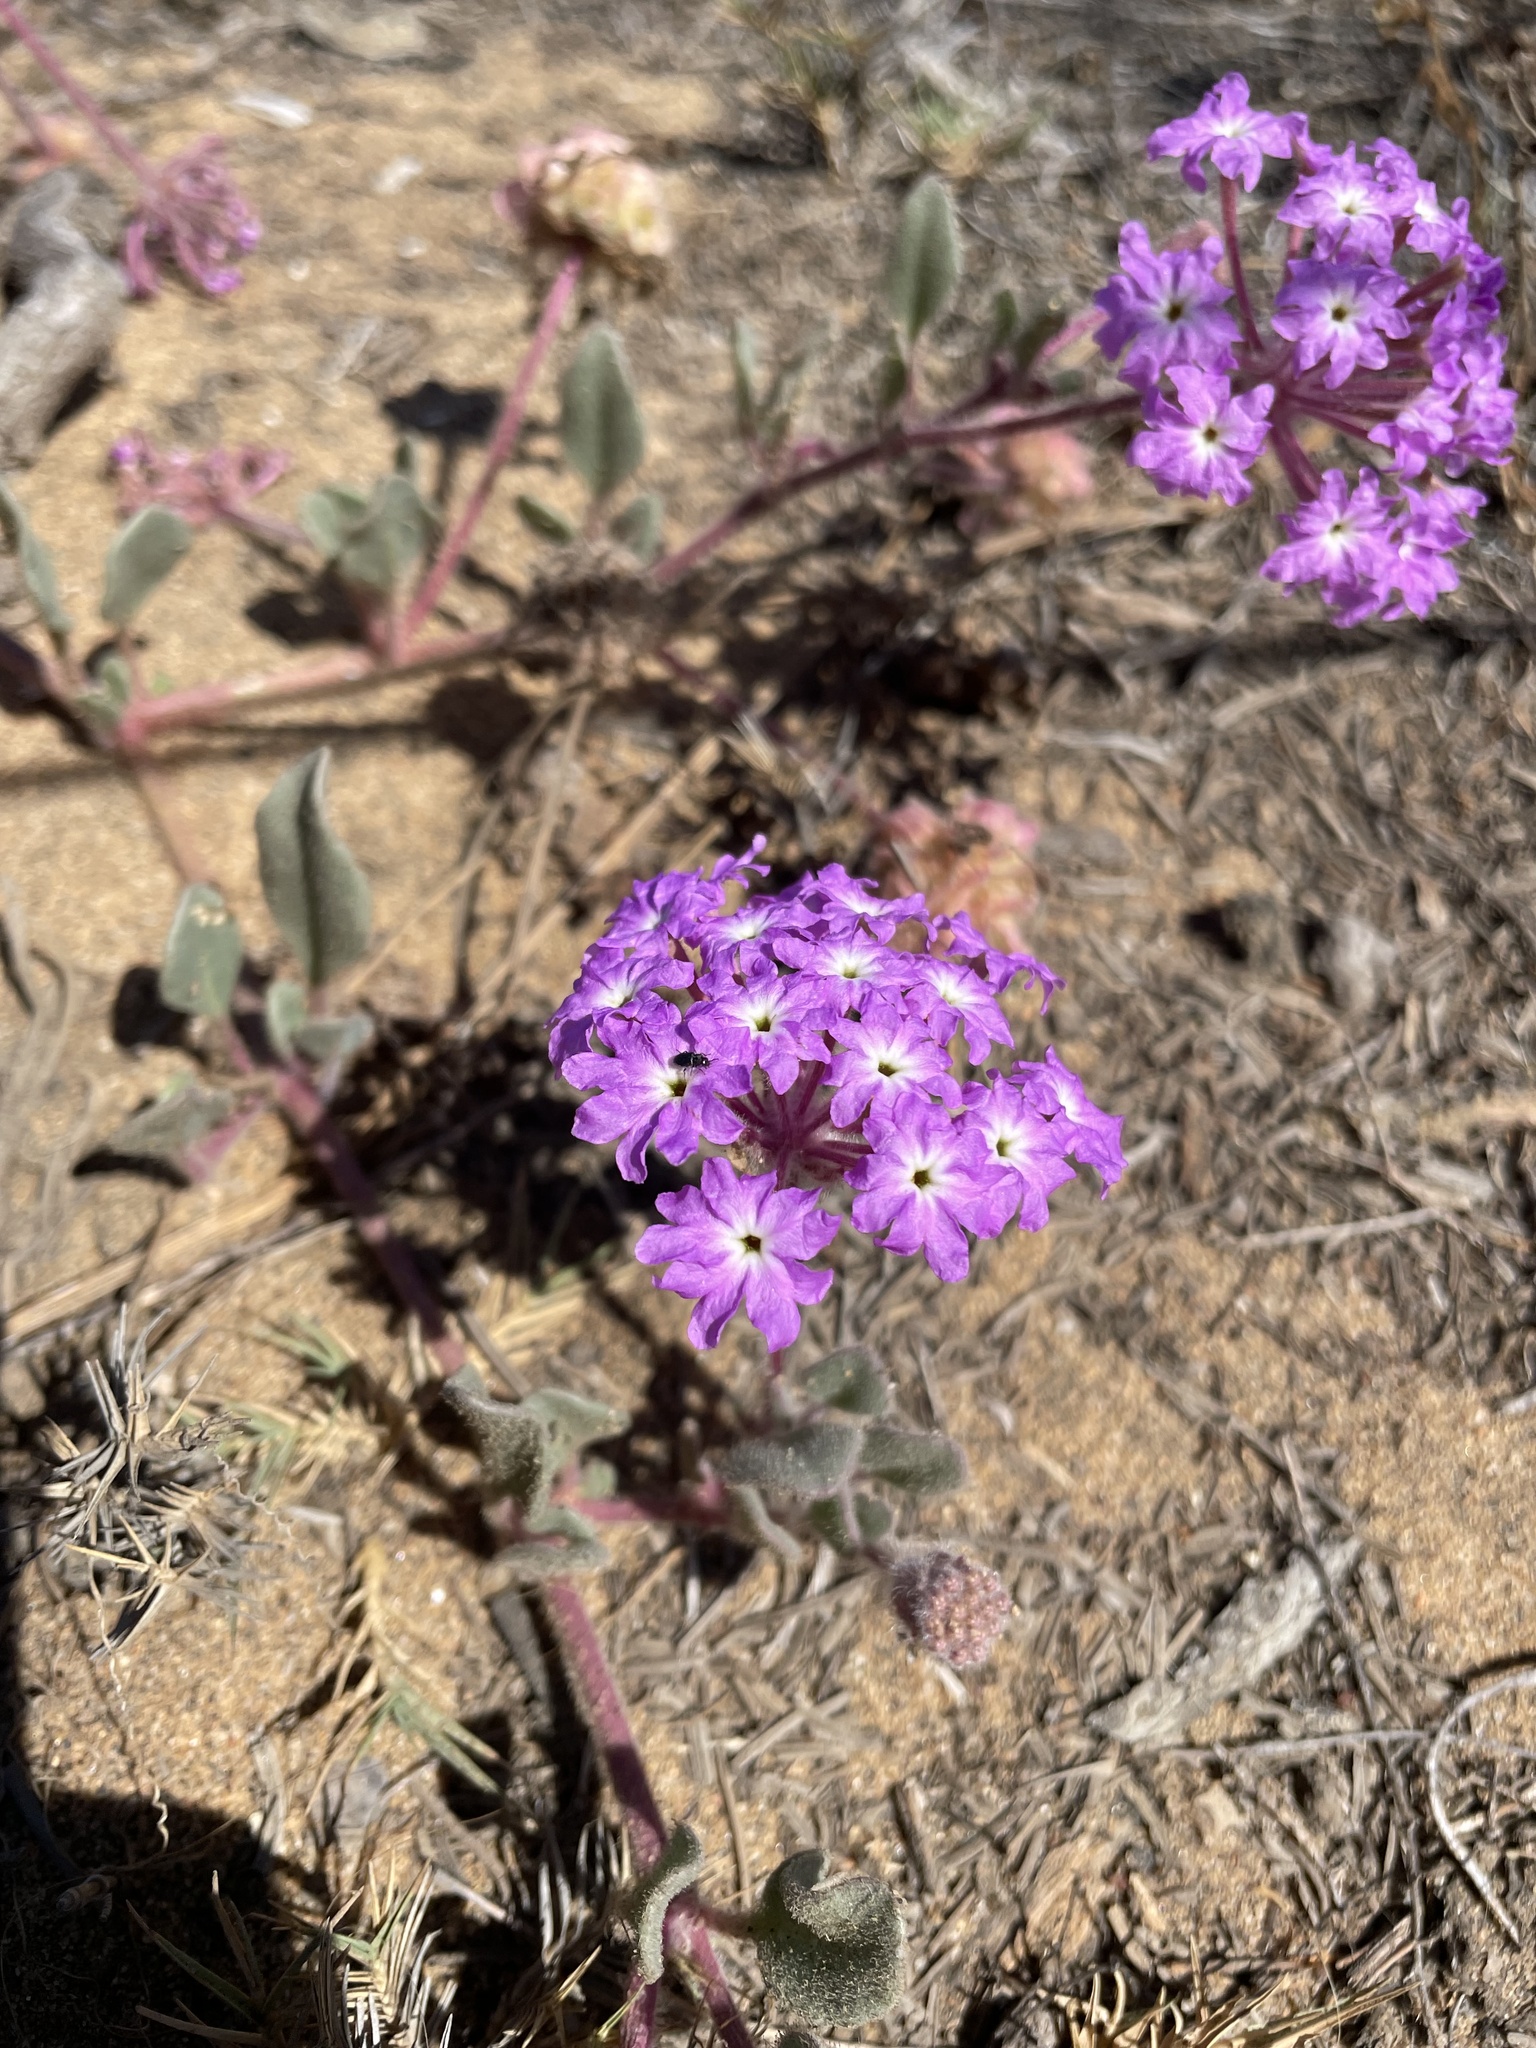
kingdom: Plantae
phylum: Tracheophyta
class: Magnoliopsida
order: Caryophyllales
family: Nyctaginaceae
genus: Abronia
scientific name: Abronia umbellata
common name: Sand-verbena
